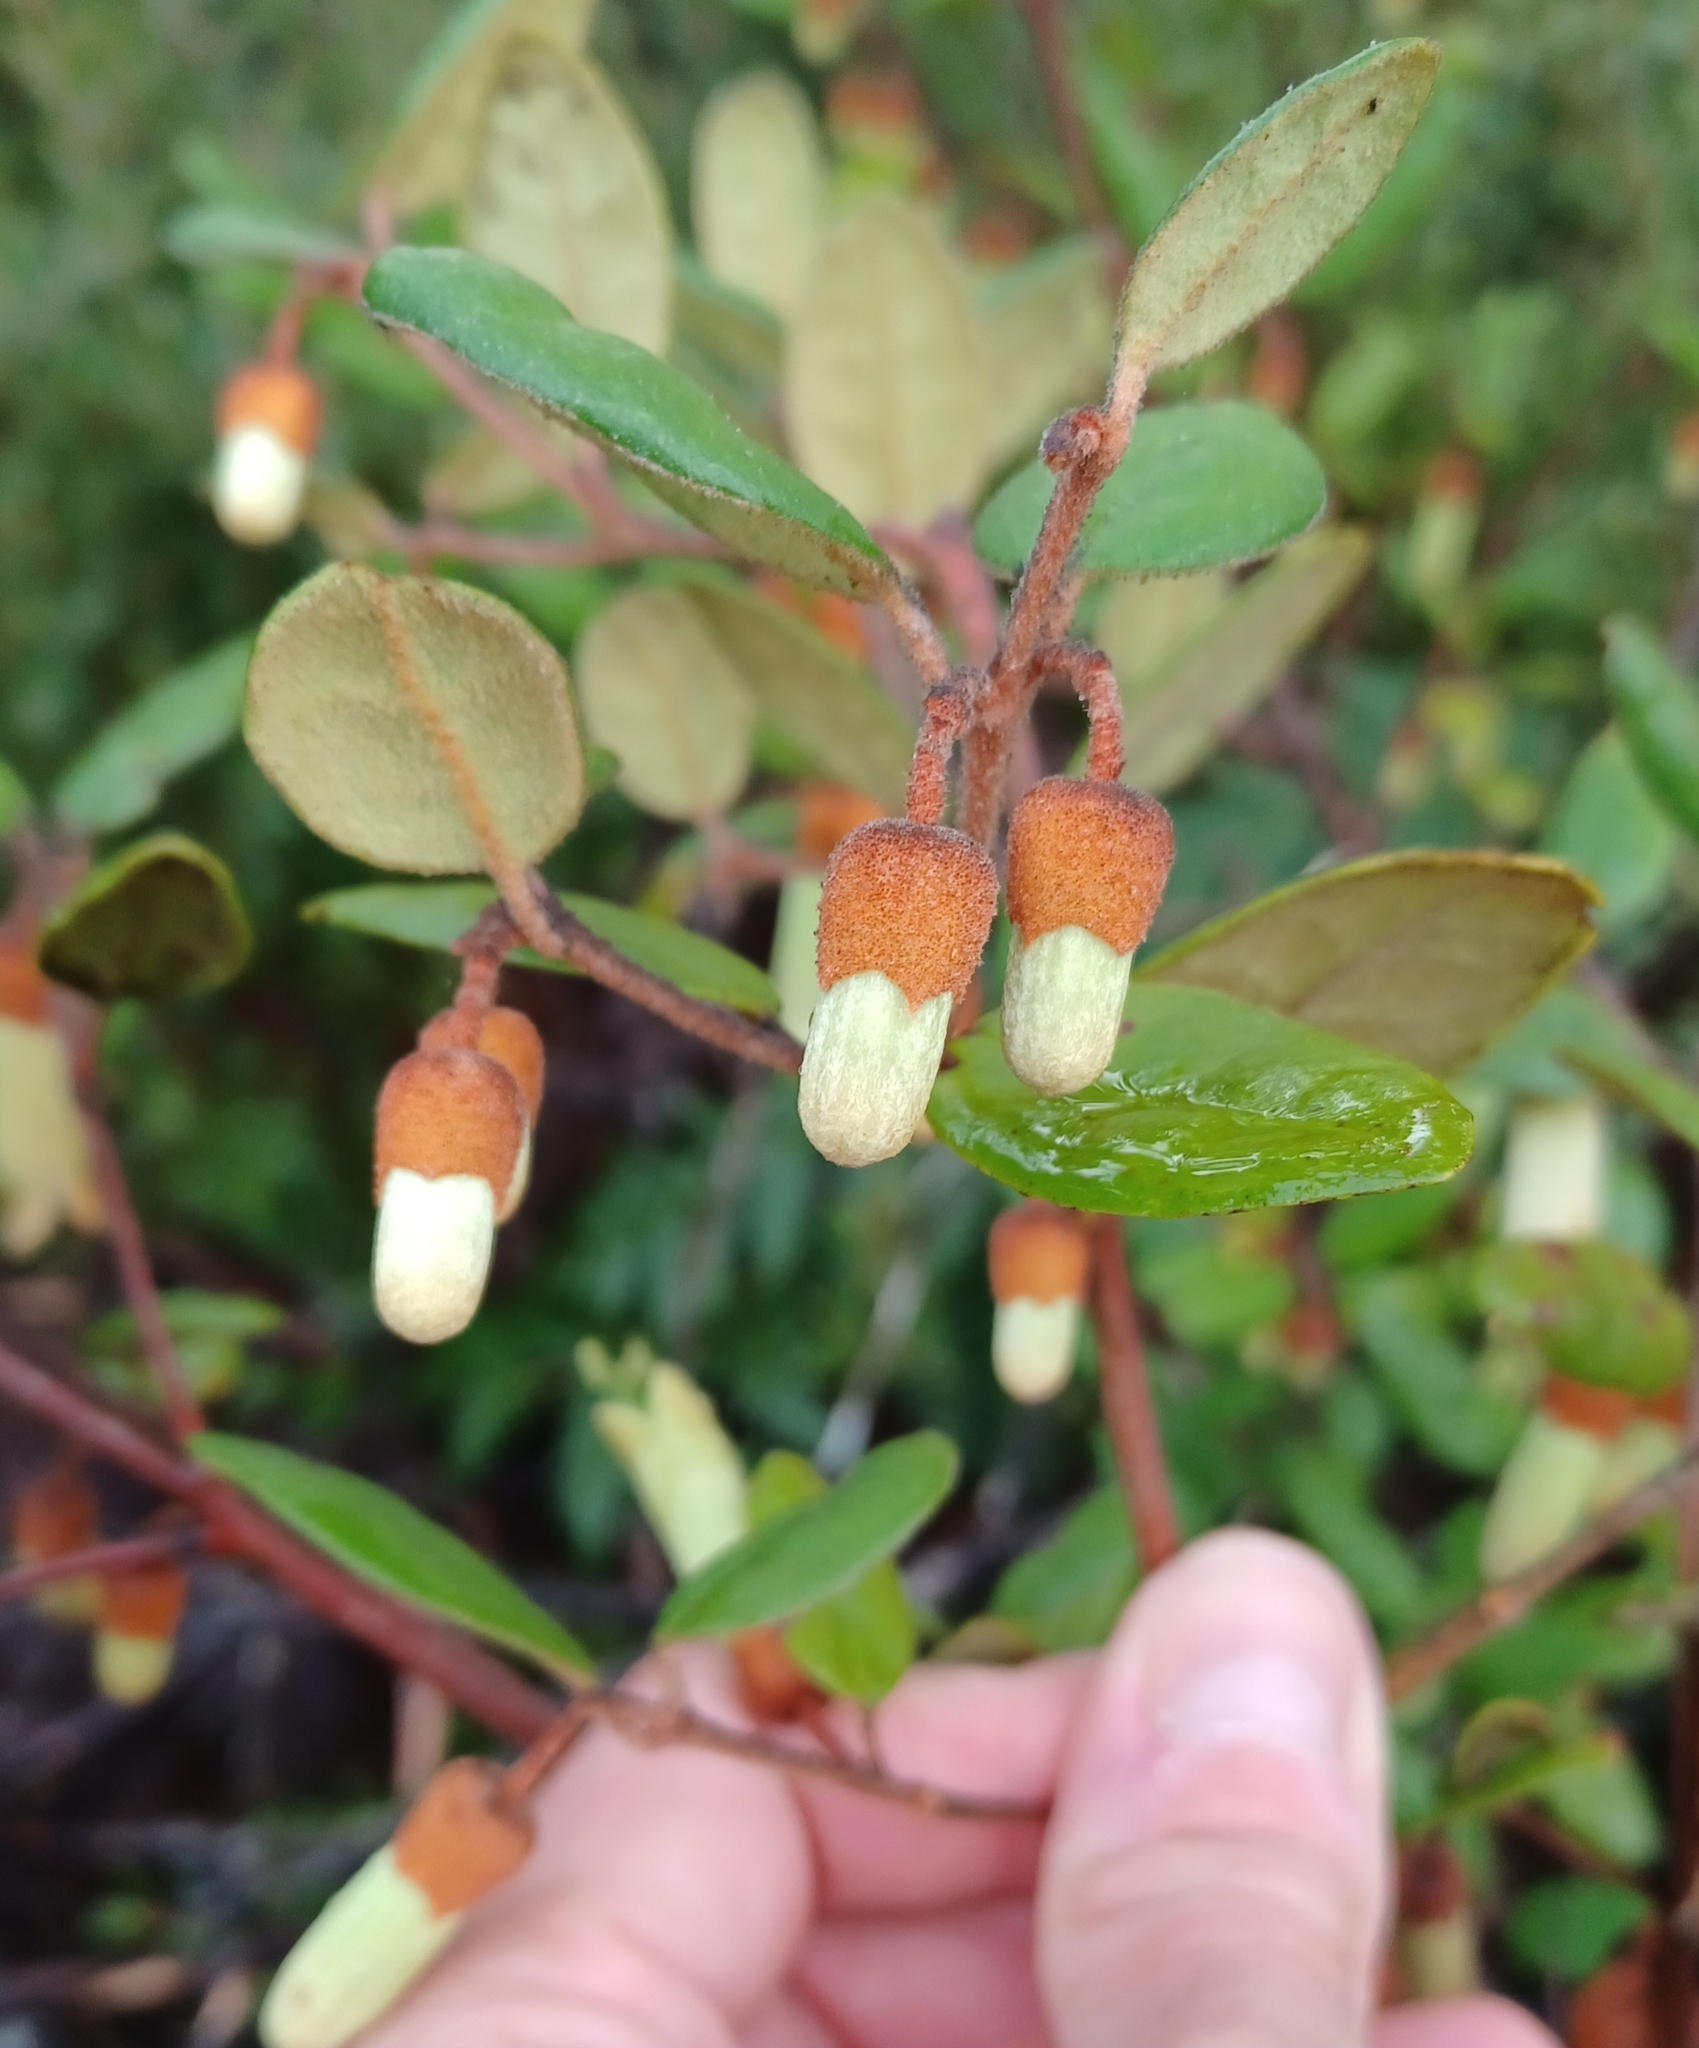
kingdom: Plantae
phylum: Tracheophyta
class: Magnoliopsida
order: Sapindales
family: Rutaceae
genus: Correa
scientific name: Correa lawrenceana
